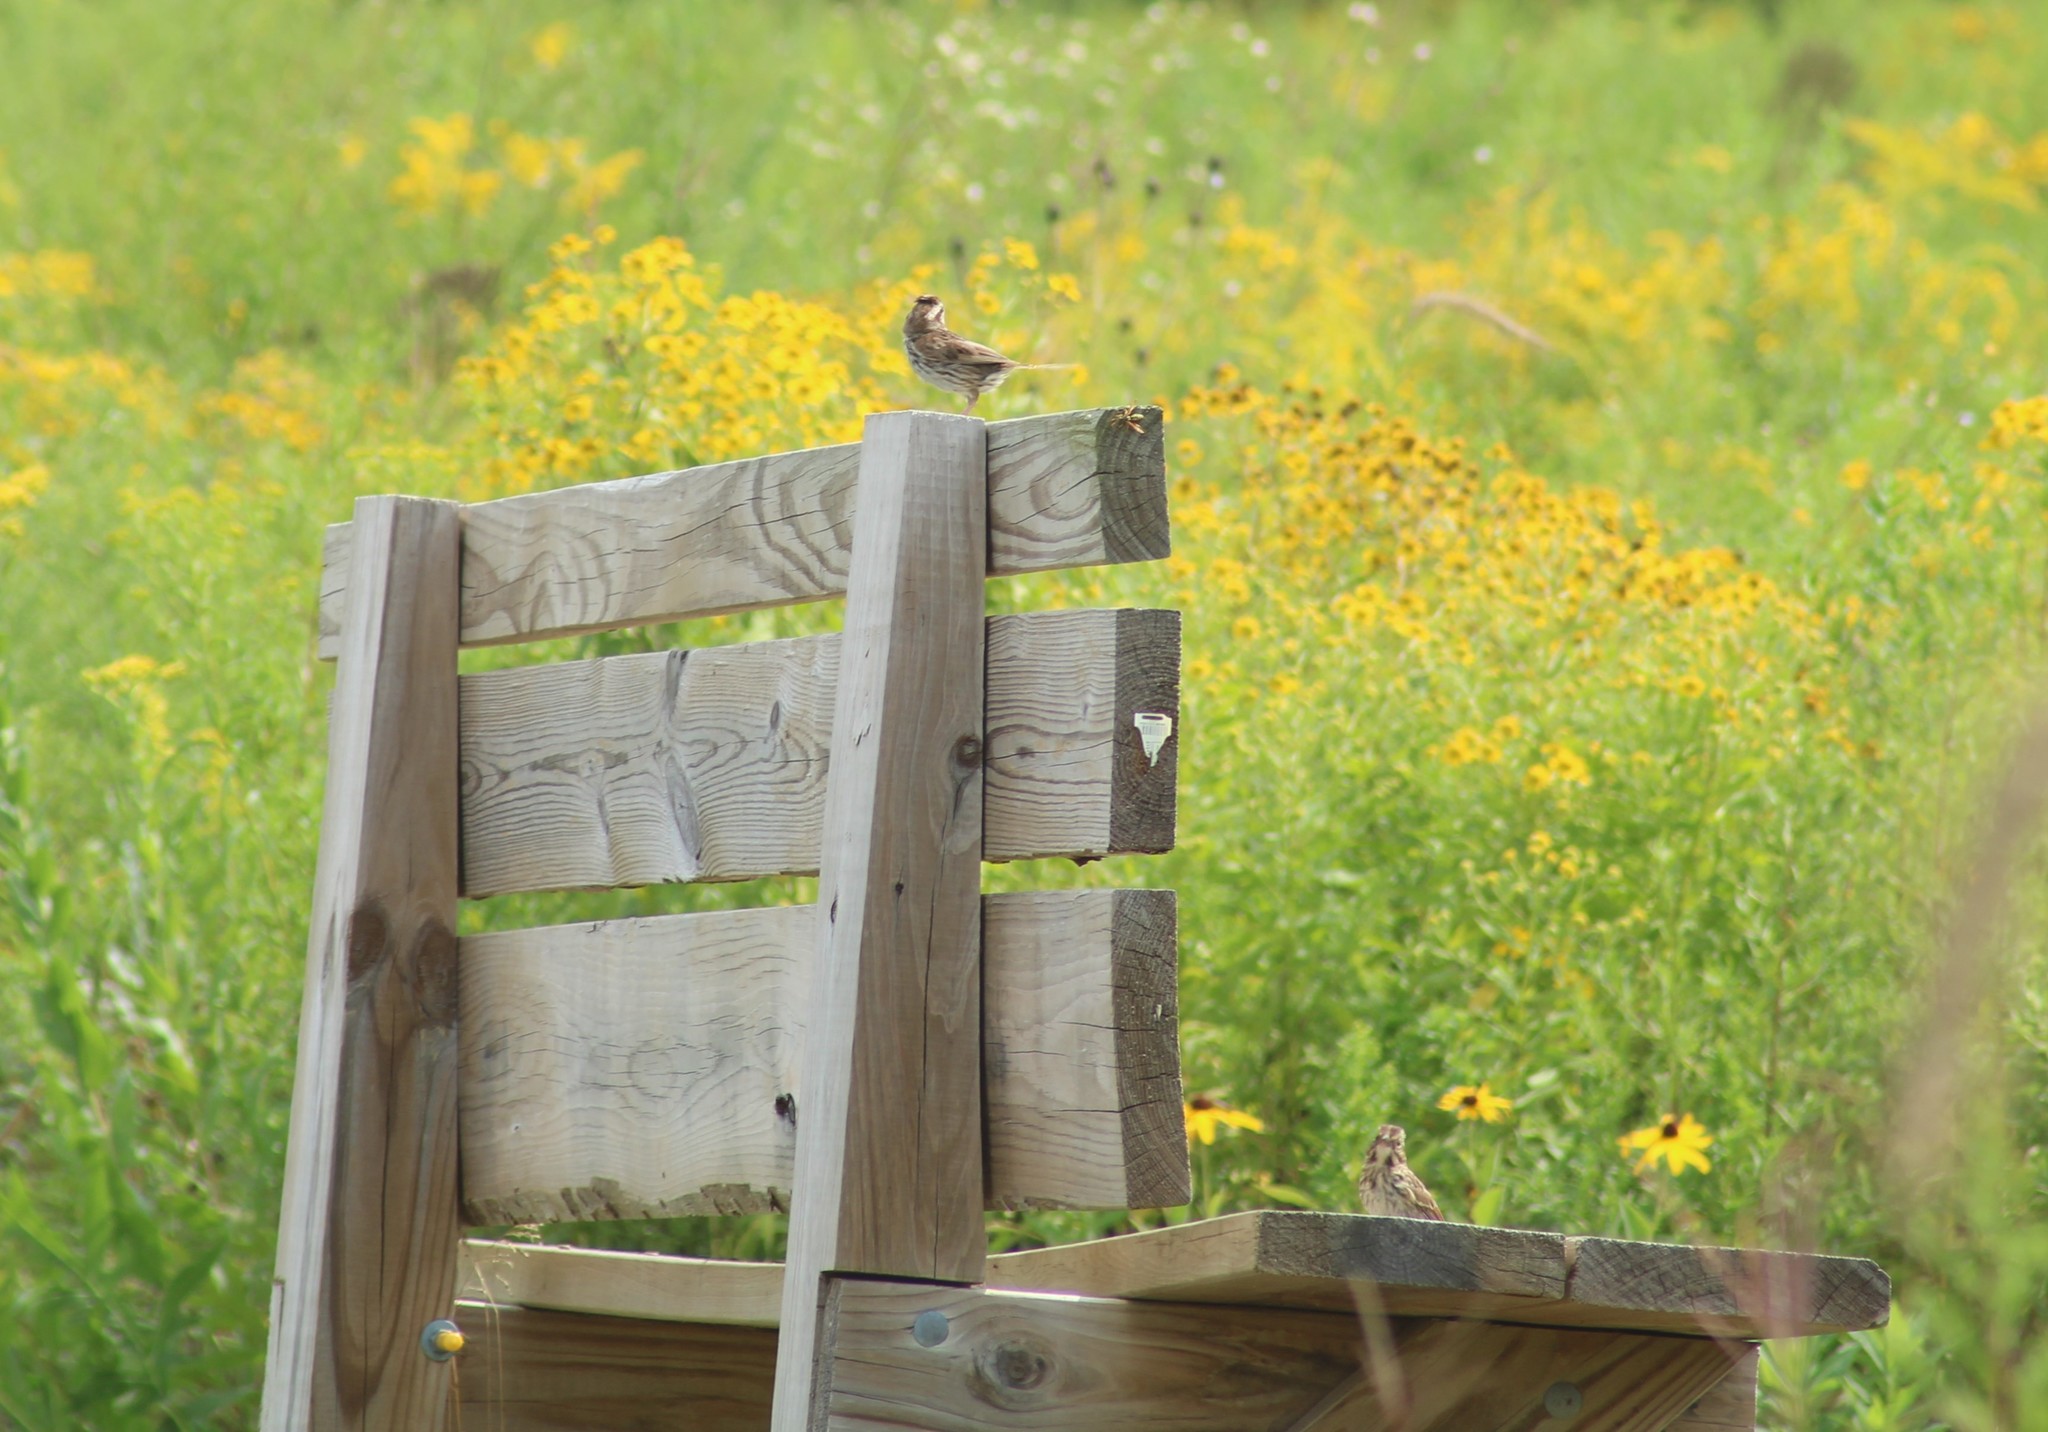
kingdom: Animalia
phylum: Chordata
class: Aves
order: Passeriformes
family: Passerellidae
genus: Melospiza
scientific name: Melospiza melodia
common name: Song sparrow
